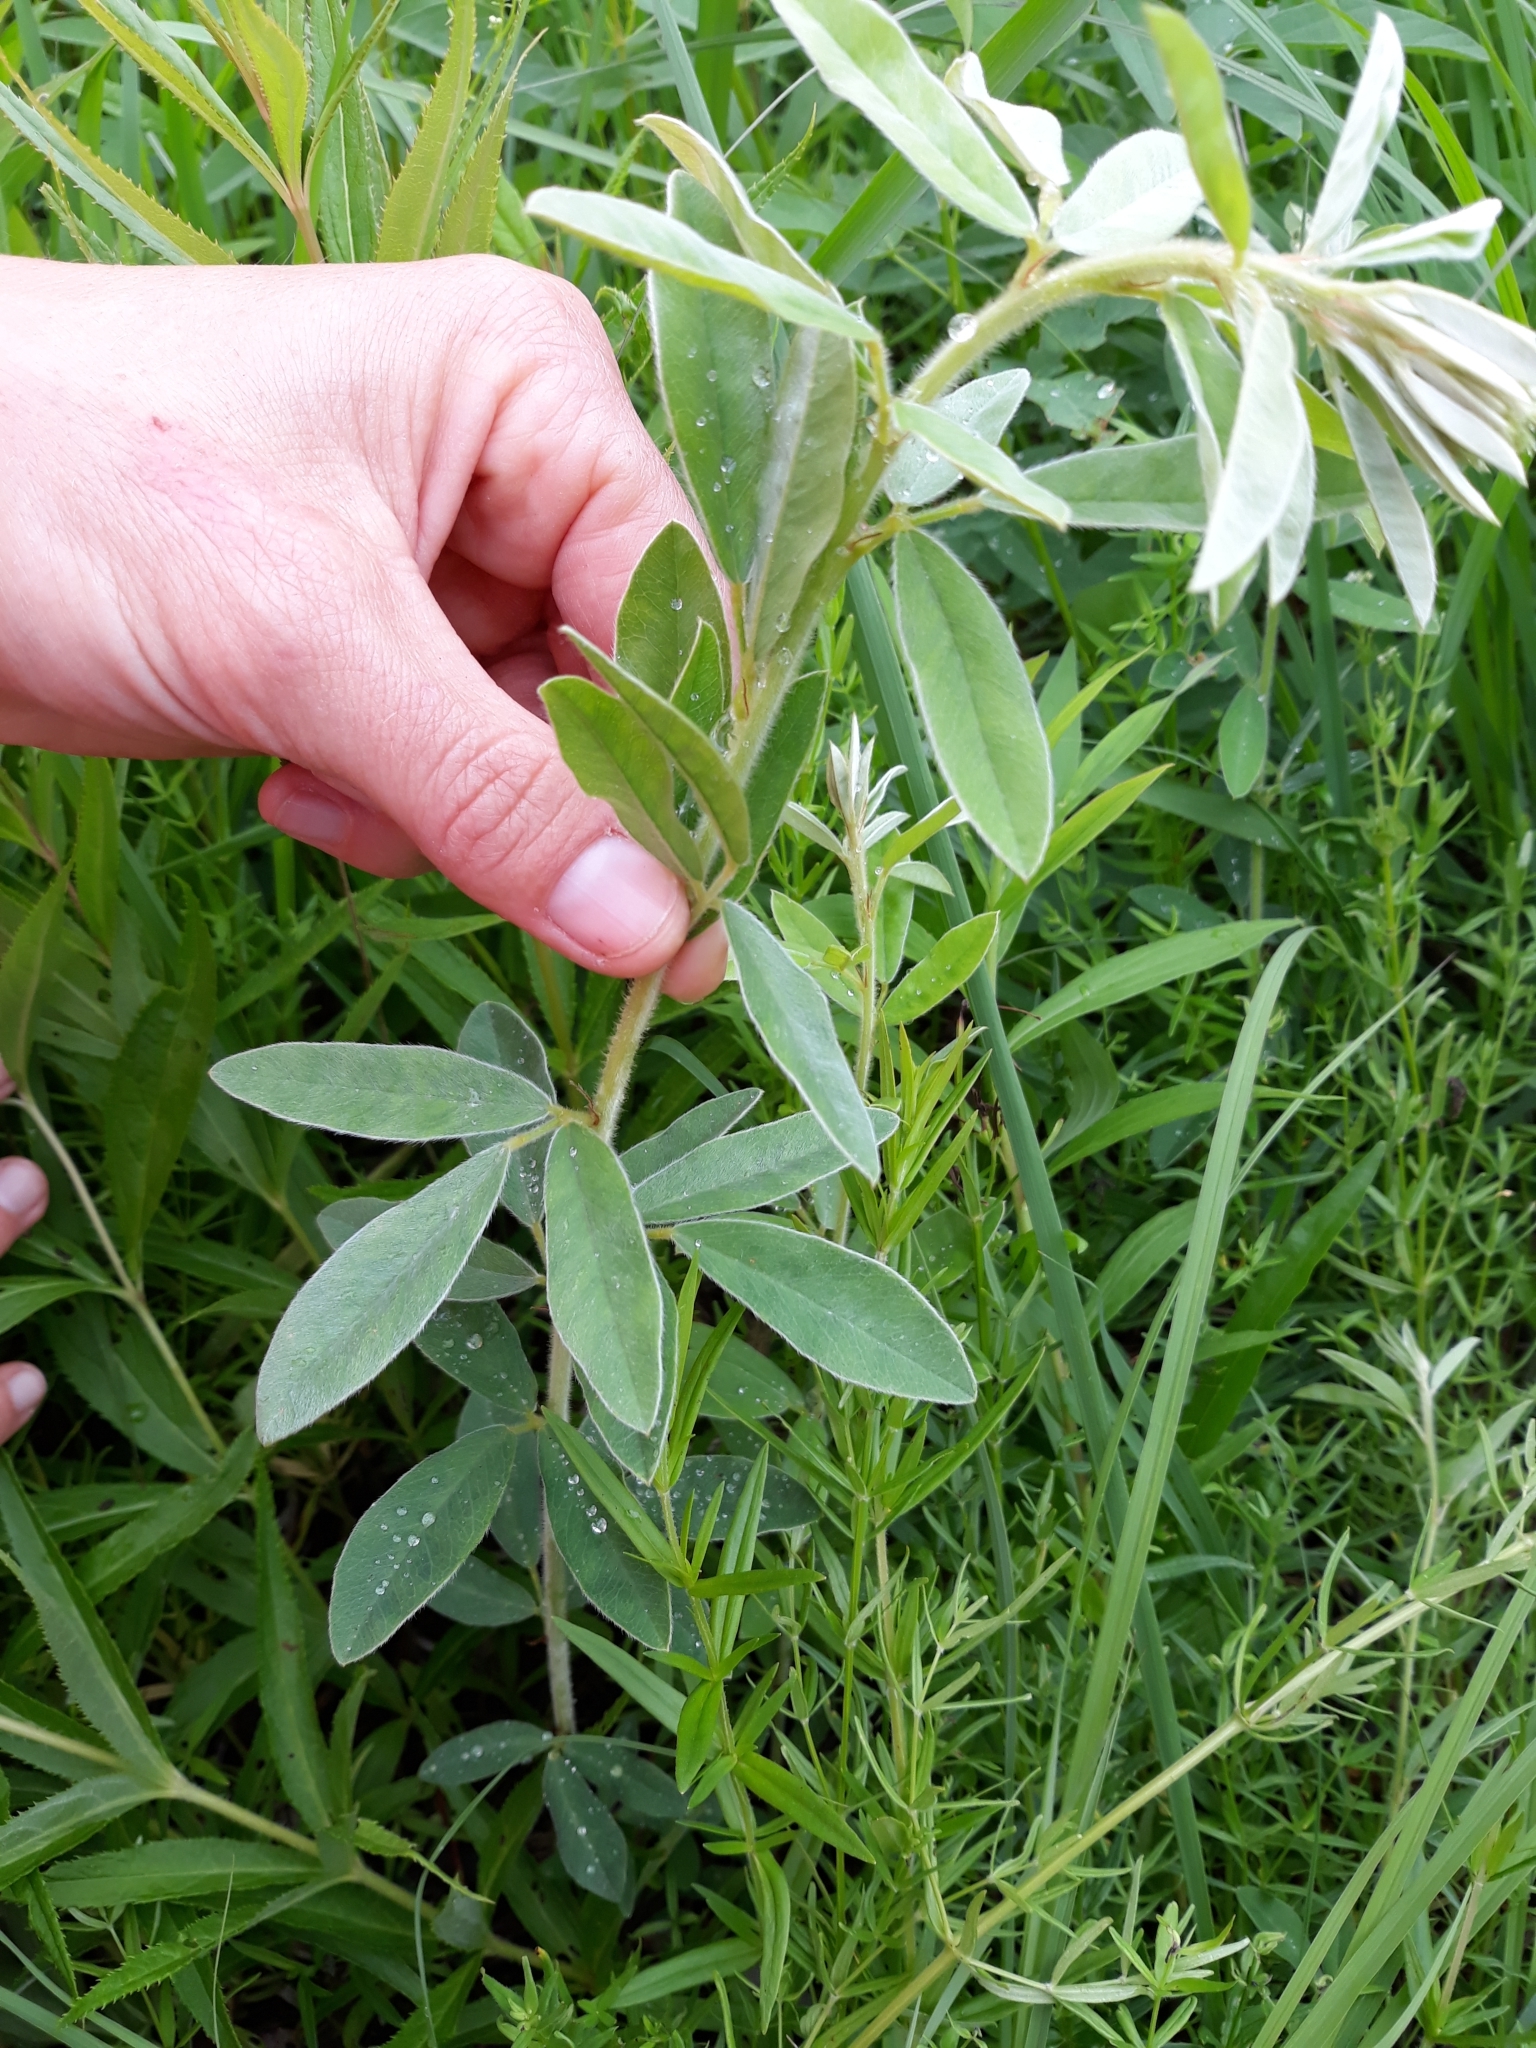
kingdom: Plantae
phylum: Tracheophyta
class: Magnoliopsida
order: Fabales
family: Fabaceae
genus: Pediomelum
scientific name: Pediomelum argophyllum
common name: Silver-leaved indian breadroot
